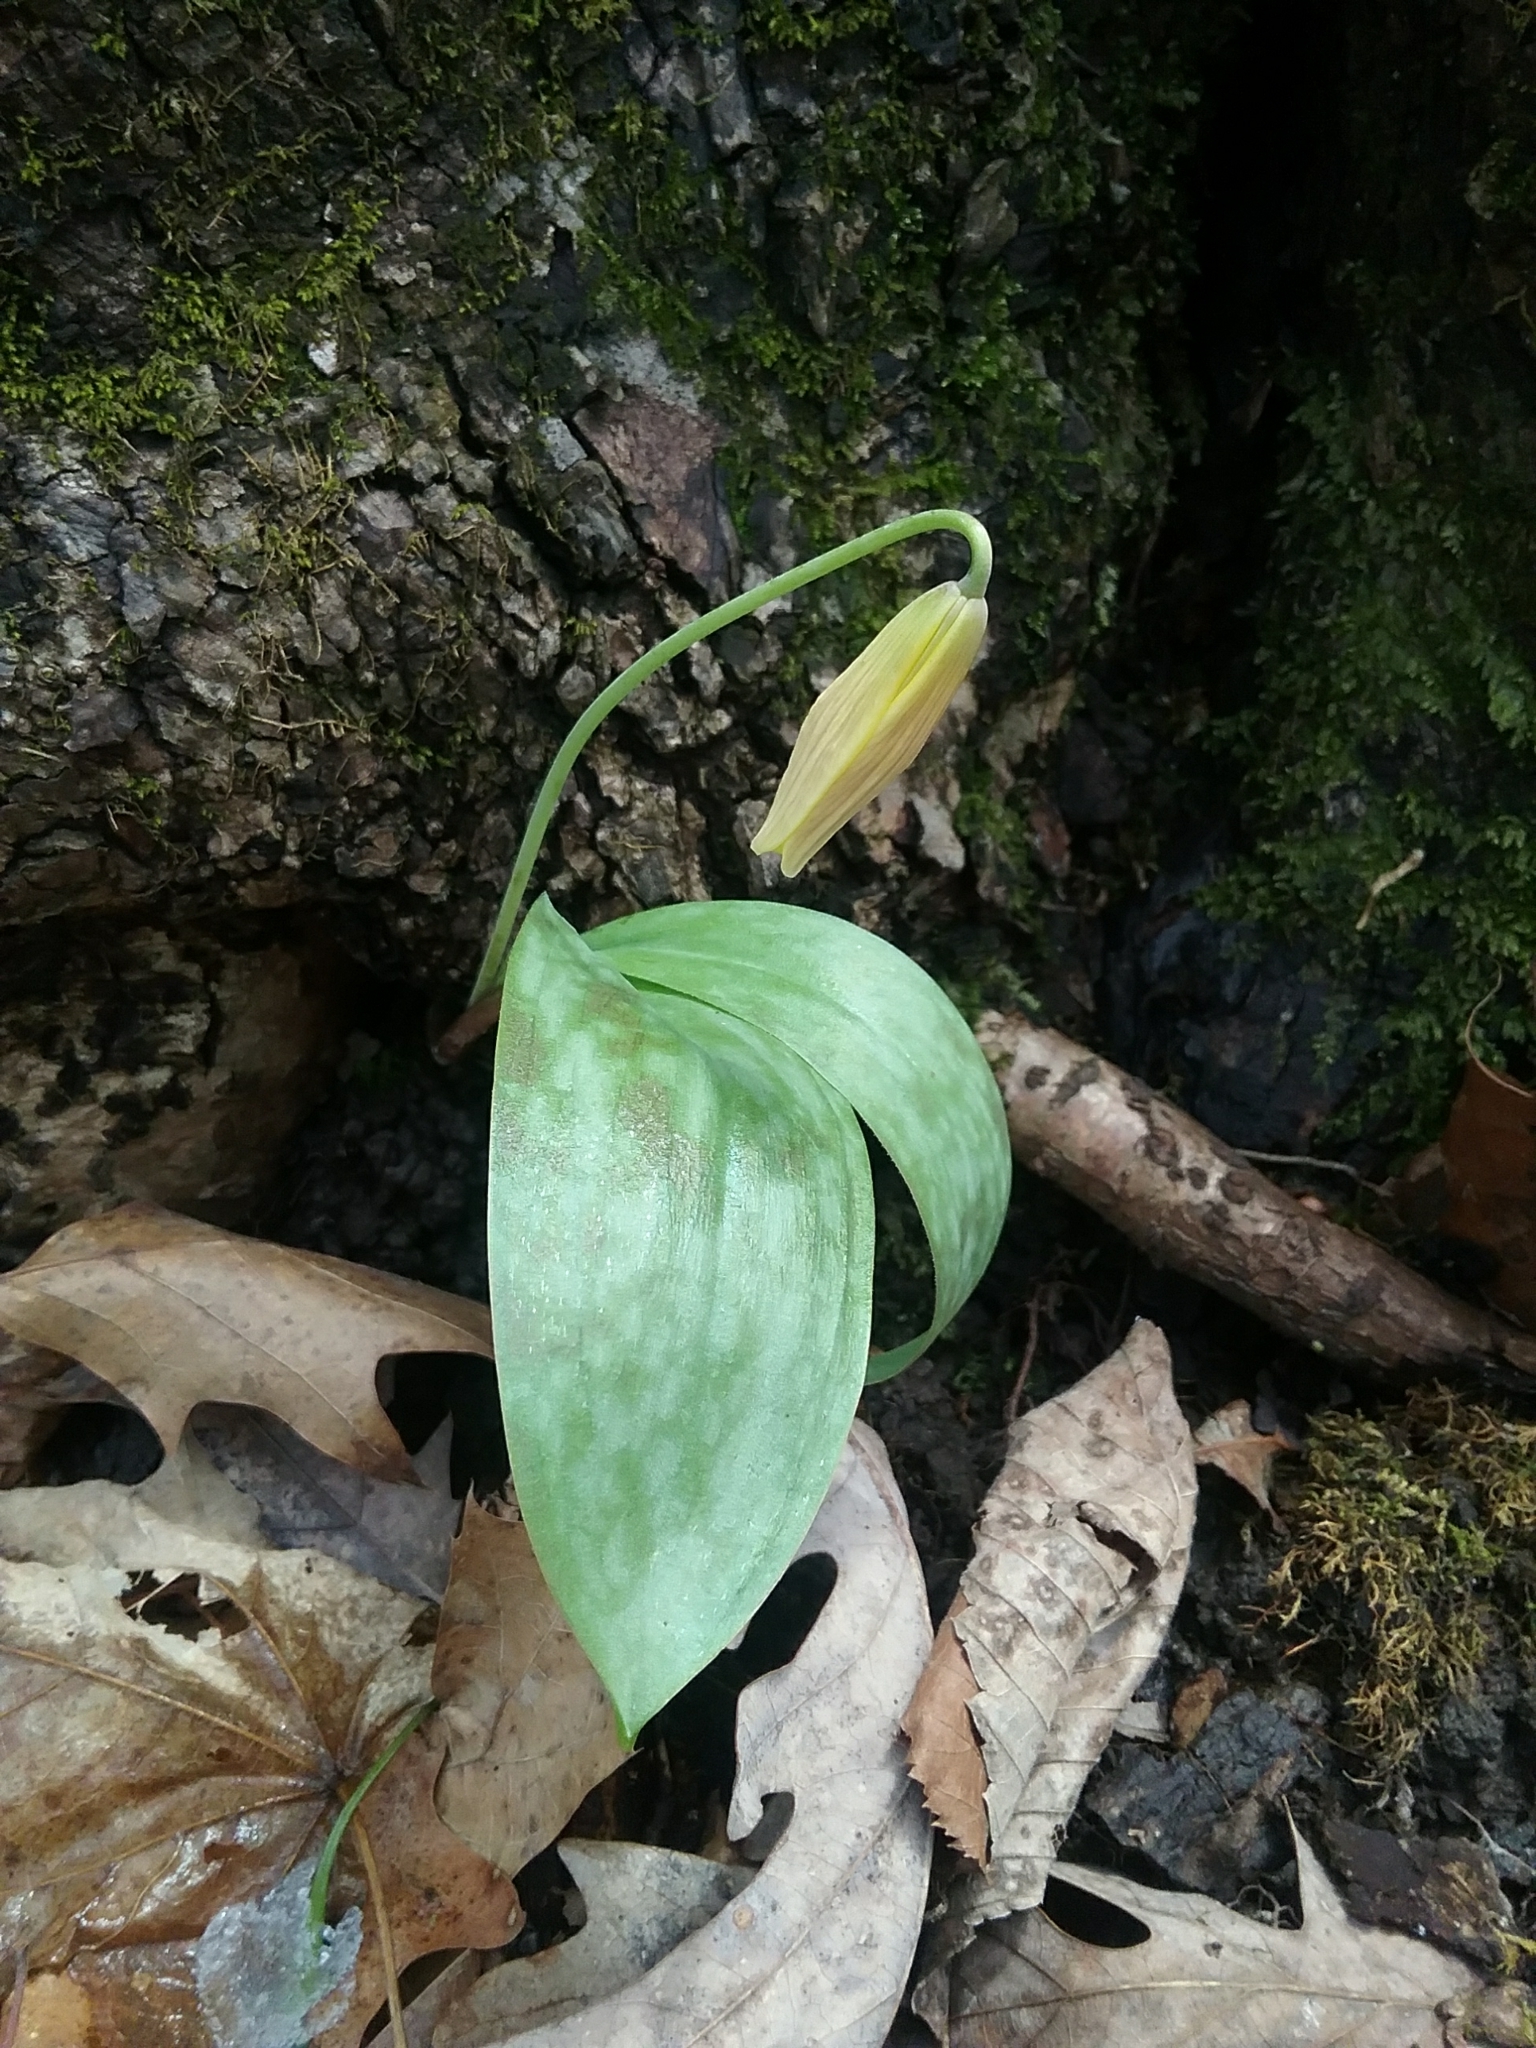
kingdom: Plantae
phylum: Tracheophyta
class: Liliopsida
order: Liliales
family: Liliaceae
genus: Erythronium
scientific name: Erythronium americanum
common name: Yellow adder's-tongue
